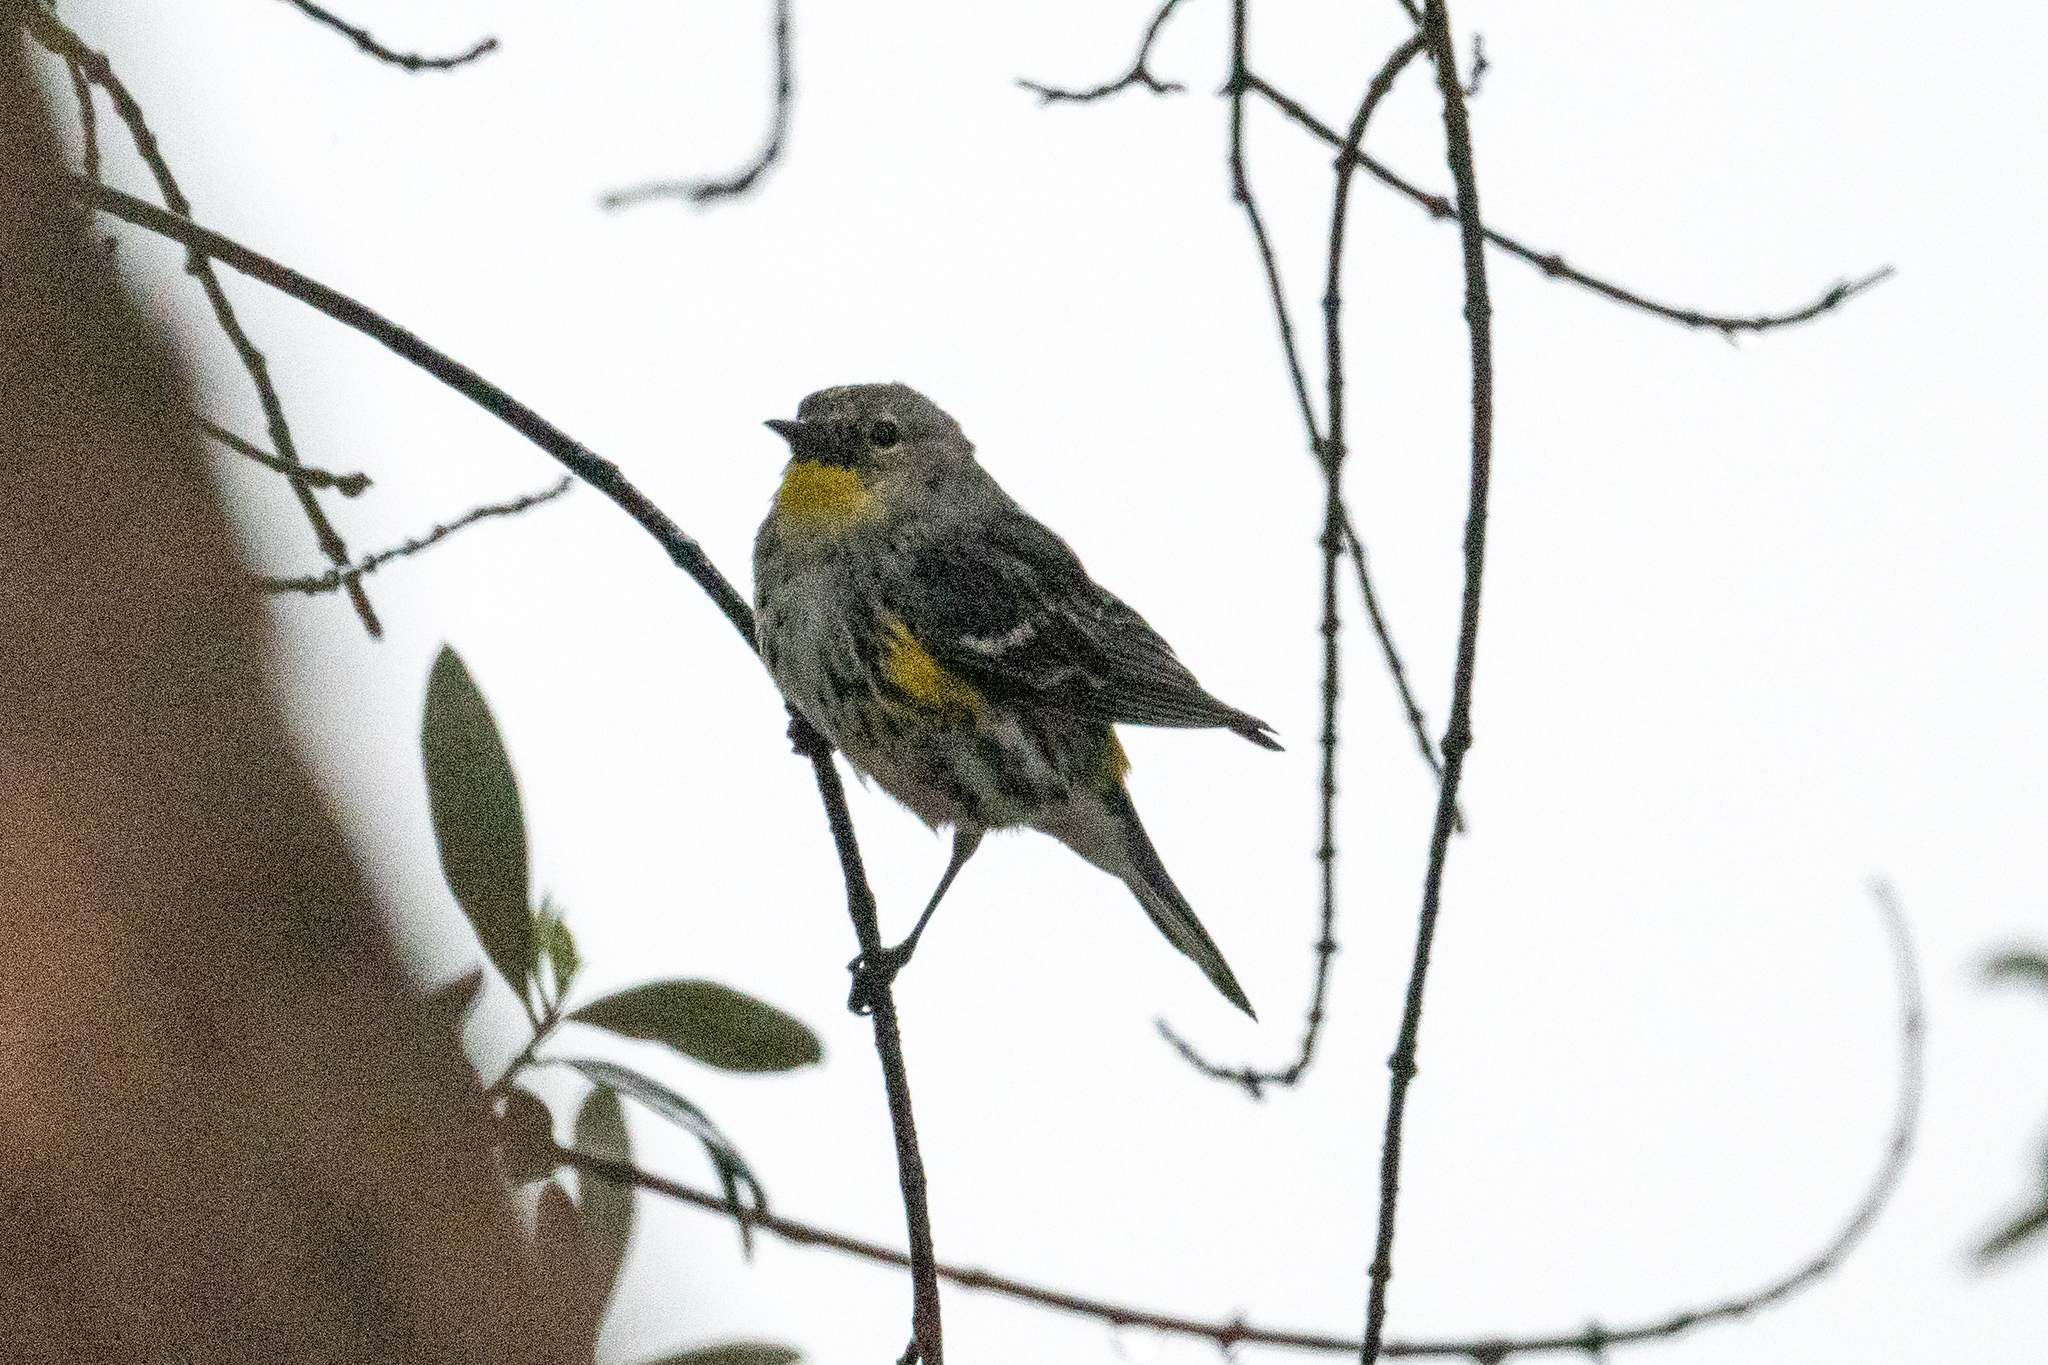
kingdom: Animalia
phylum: Chordata
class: Aves
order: Passeriformes
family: Parulidae
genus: Setophaga
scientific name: Setophaga coronata
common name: Myrtle warbler
